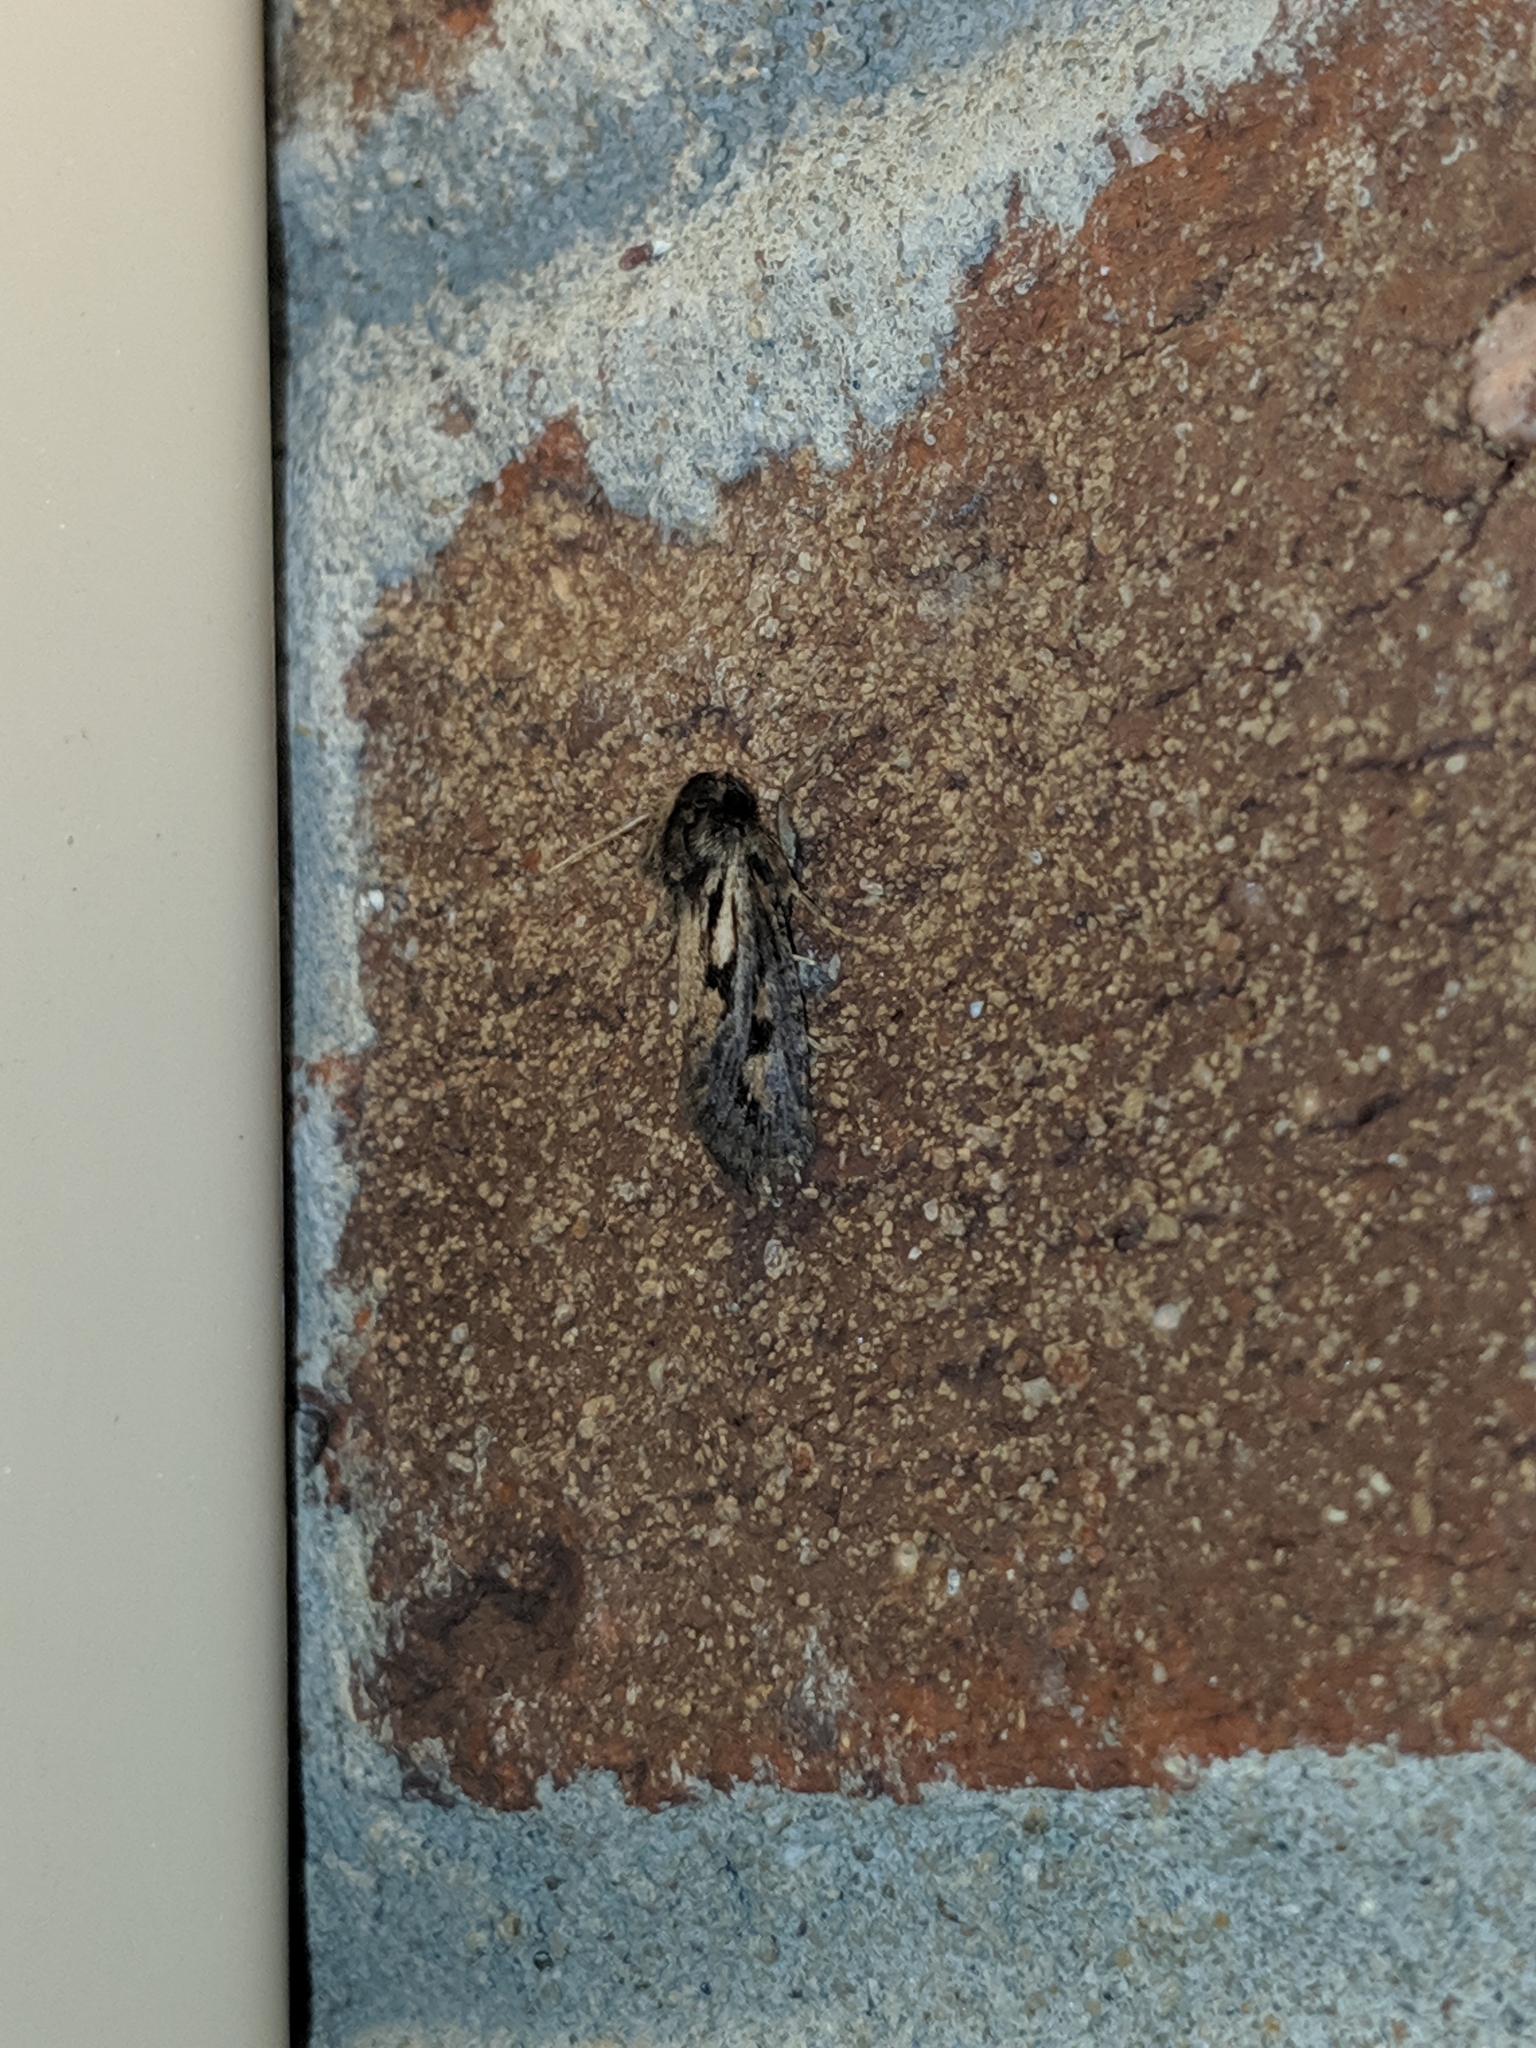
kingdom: Animalia
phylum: Arthropoda
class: Insecta
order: Lepidoptera
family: Tineidae
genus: Acrolophus
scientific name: Acrolophus popeanella
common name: Clemens' grass tubeworm moth
